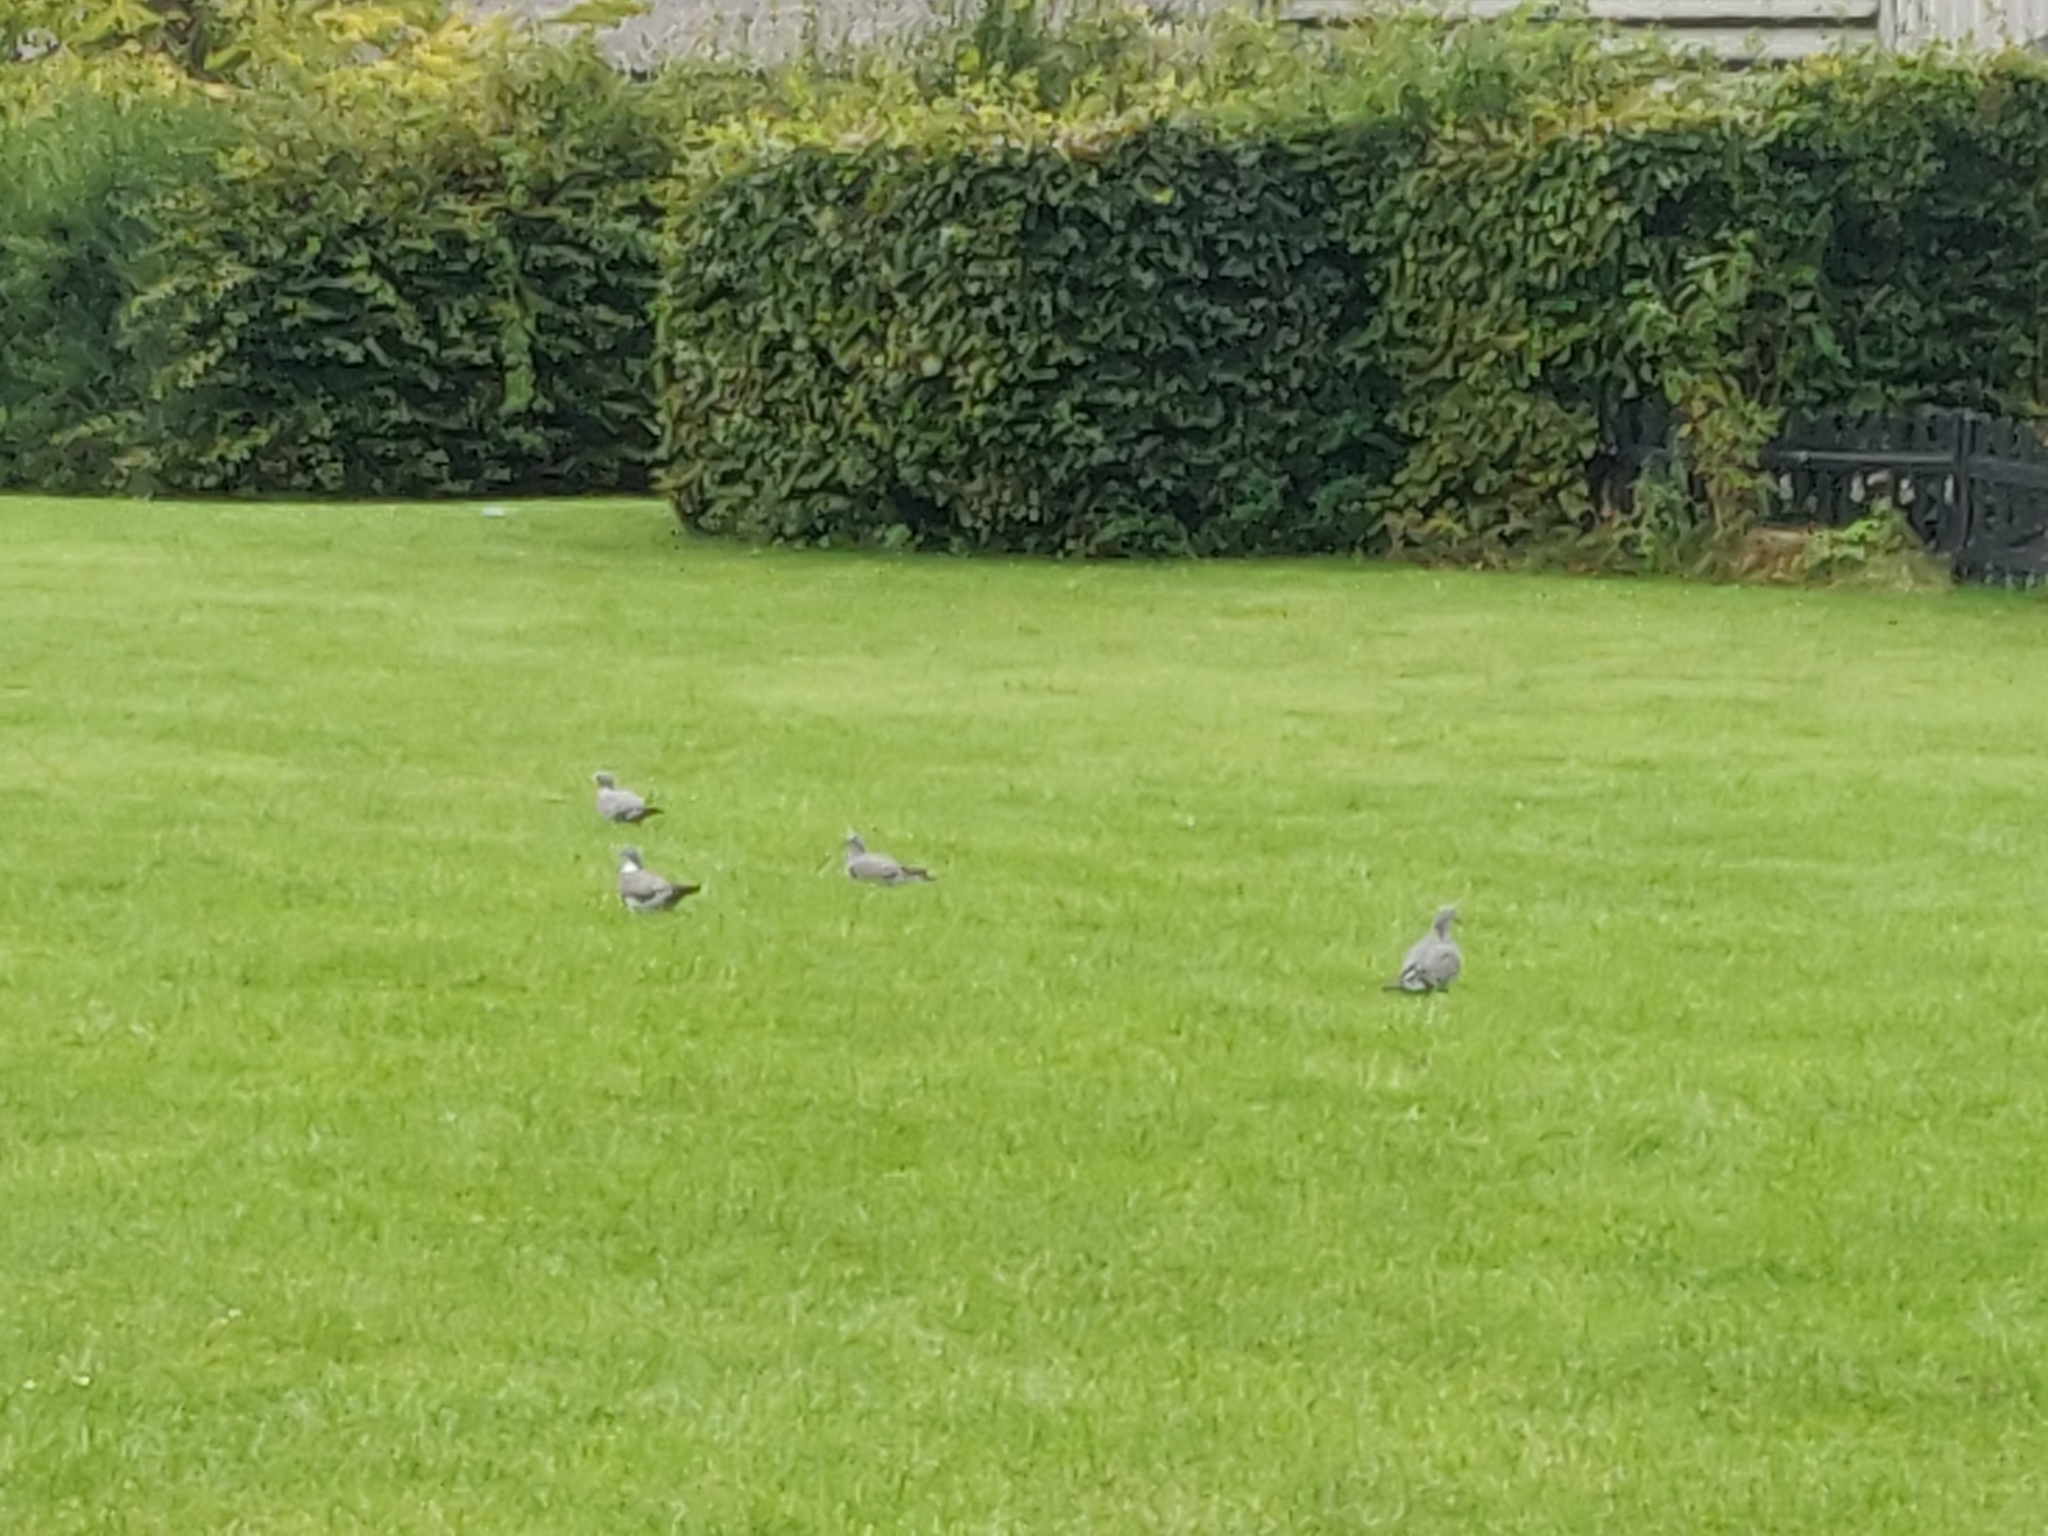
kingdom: Animalia
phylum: Chordata
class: Aves
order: Columbiformes
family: Columbidae
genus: Columba
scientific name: Columba palumbus
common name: Common wood pigeon
